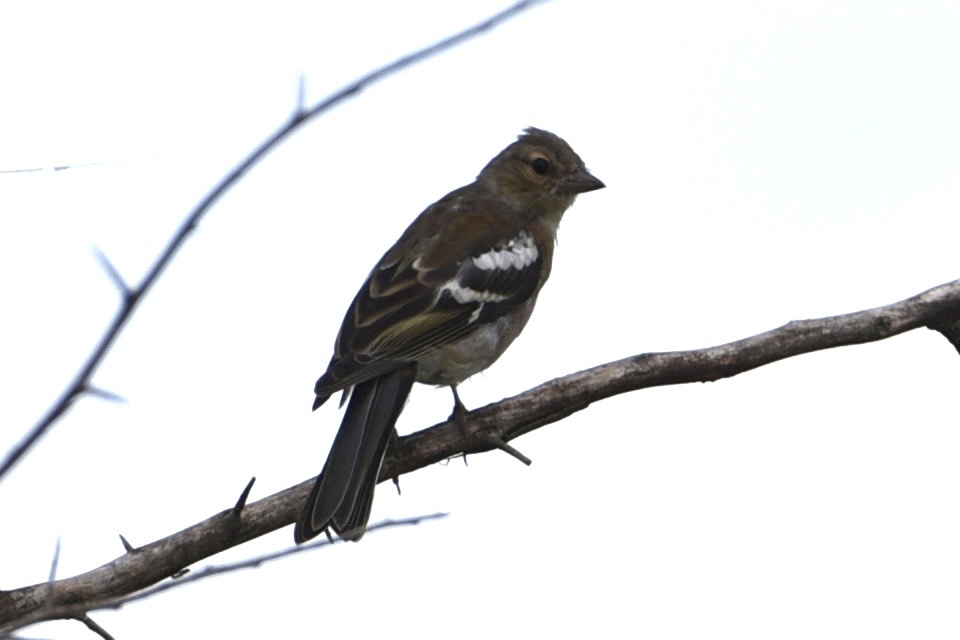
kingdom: Animalia
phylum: Chordata
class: Aves
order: Passeriformes
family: Fringillidae
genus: Fringilla
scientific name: Fringilla coelebs
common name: Common chaffinch
